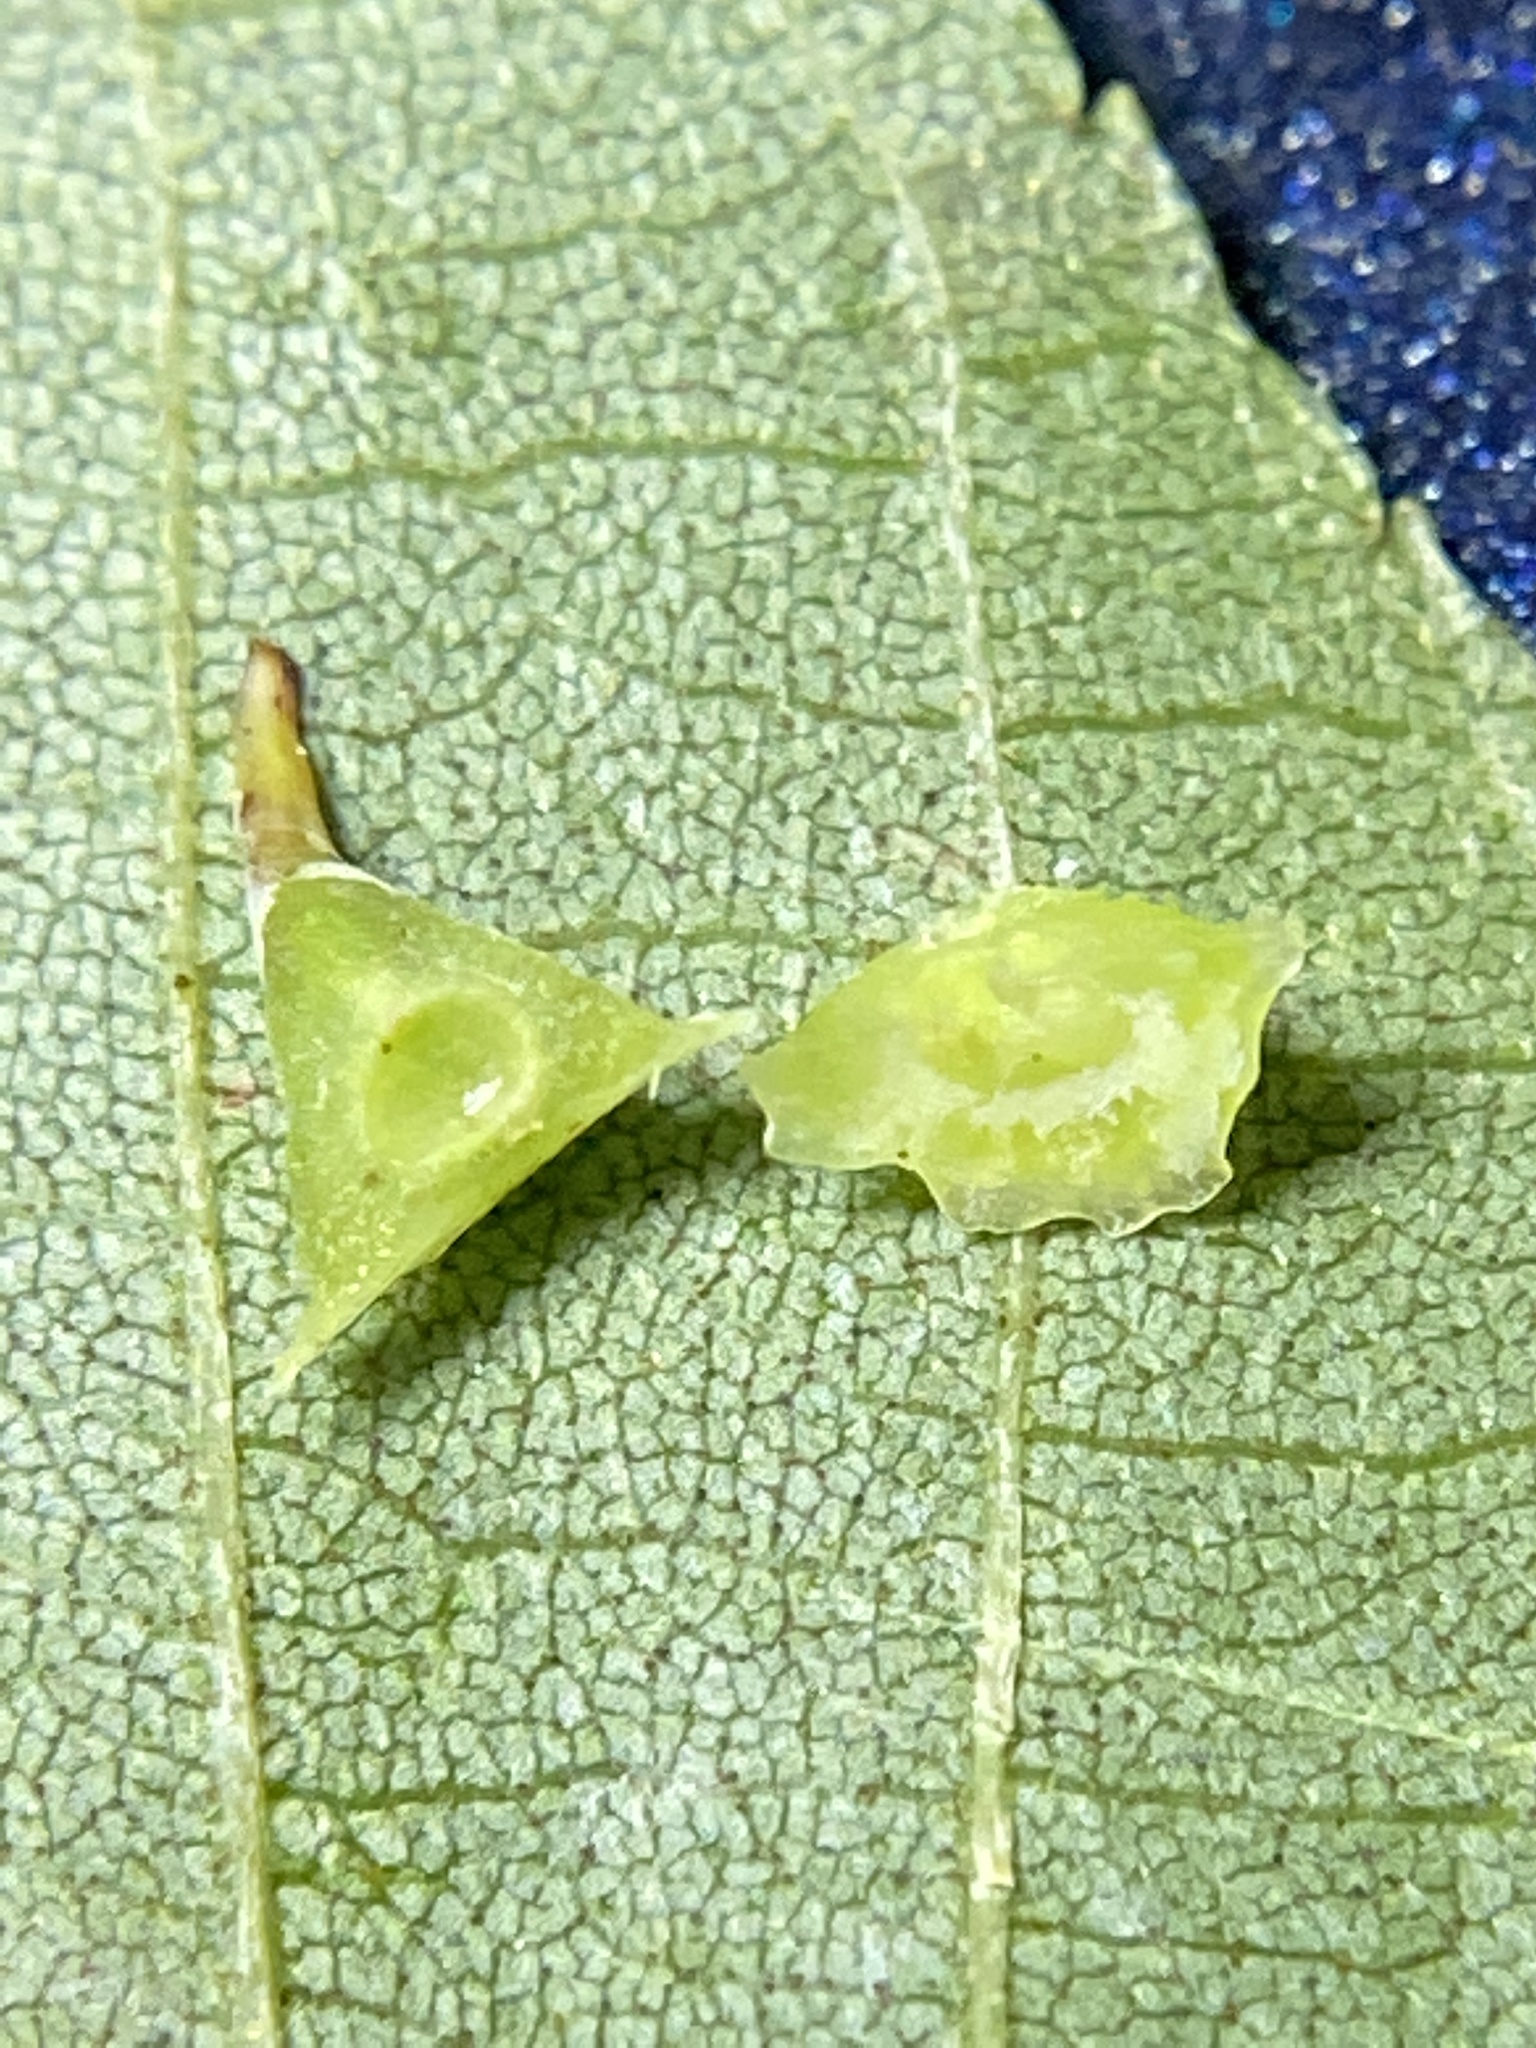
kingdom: Animalia
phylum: Arthropoda
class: Insecta
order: Diptera
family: Cecidomyiidae
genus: Caryomyia
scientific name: Caryomyia stellata
